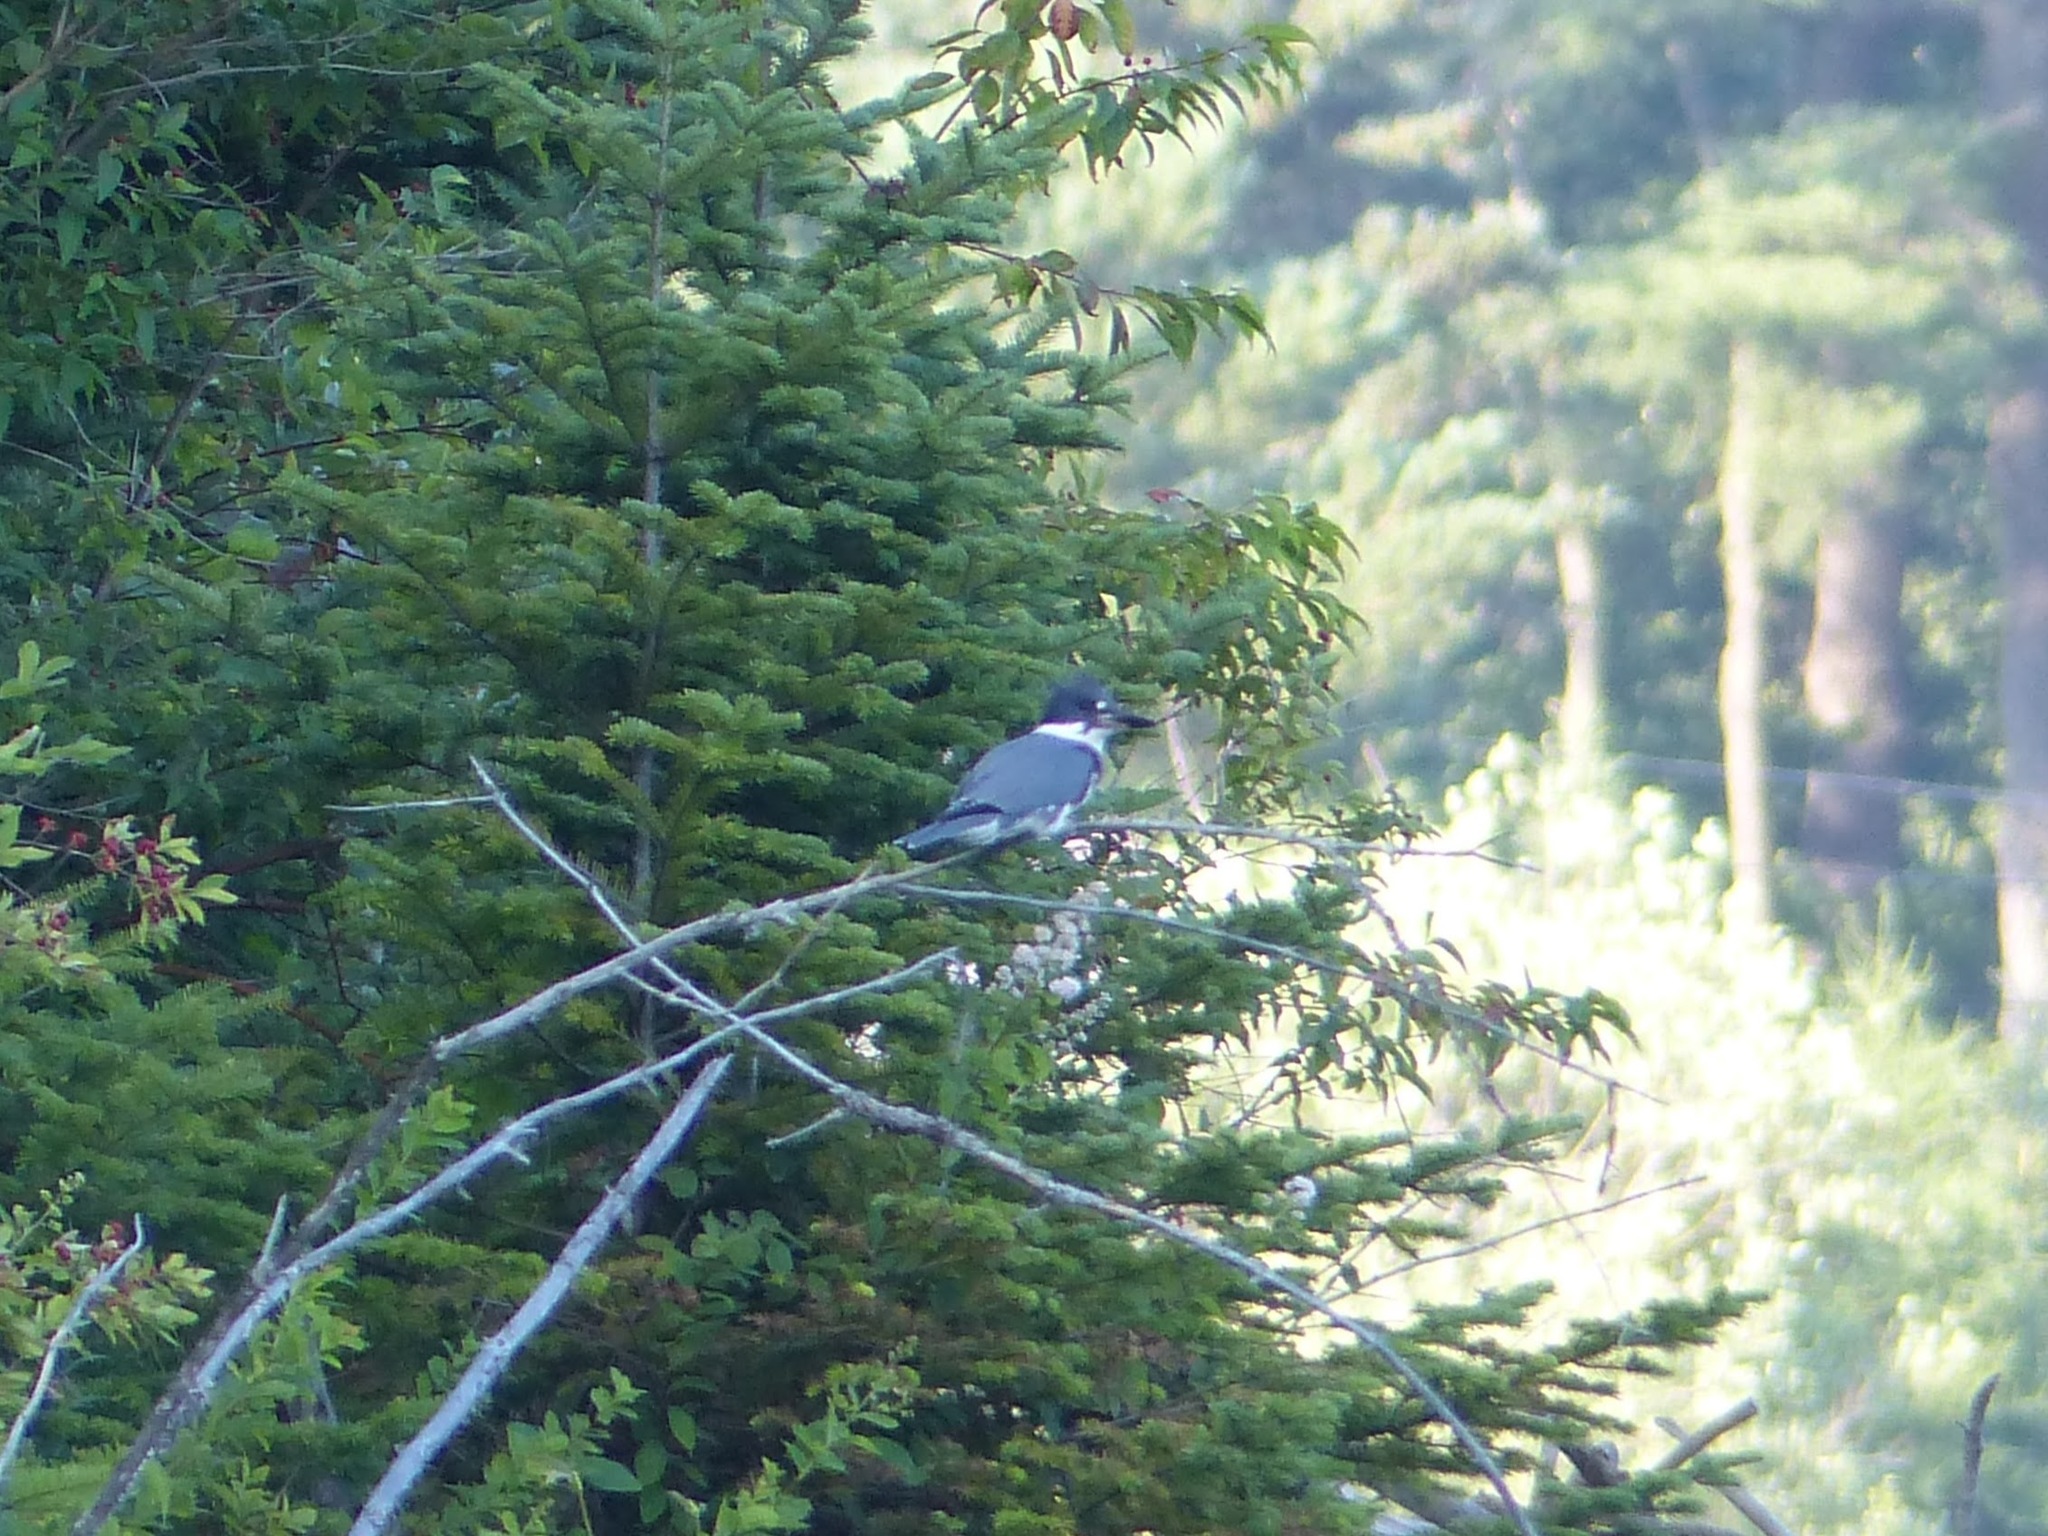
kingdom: Animalia
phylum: Chordata
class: Aves
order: Coraciiformes
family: Alcedinidae
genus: Megaceryle
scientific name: Megaceryle alcyon
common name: Belted kingfisher
